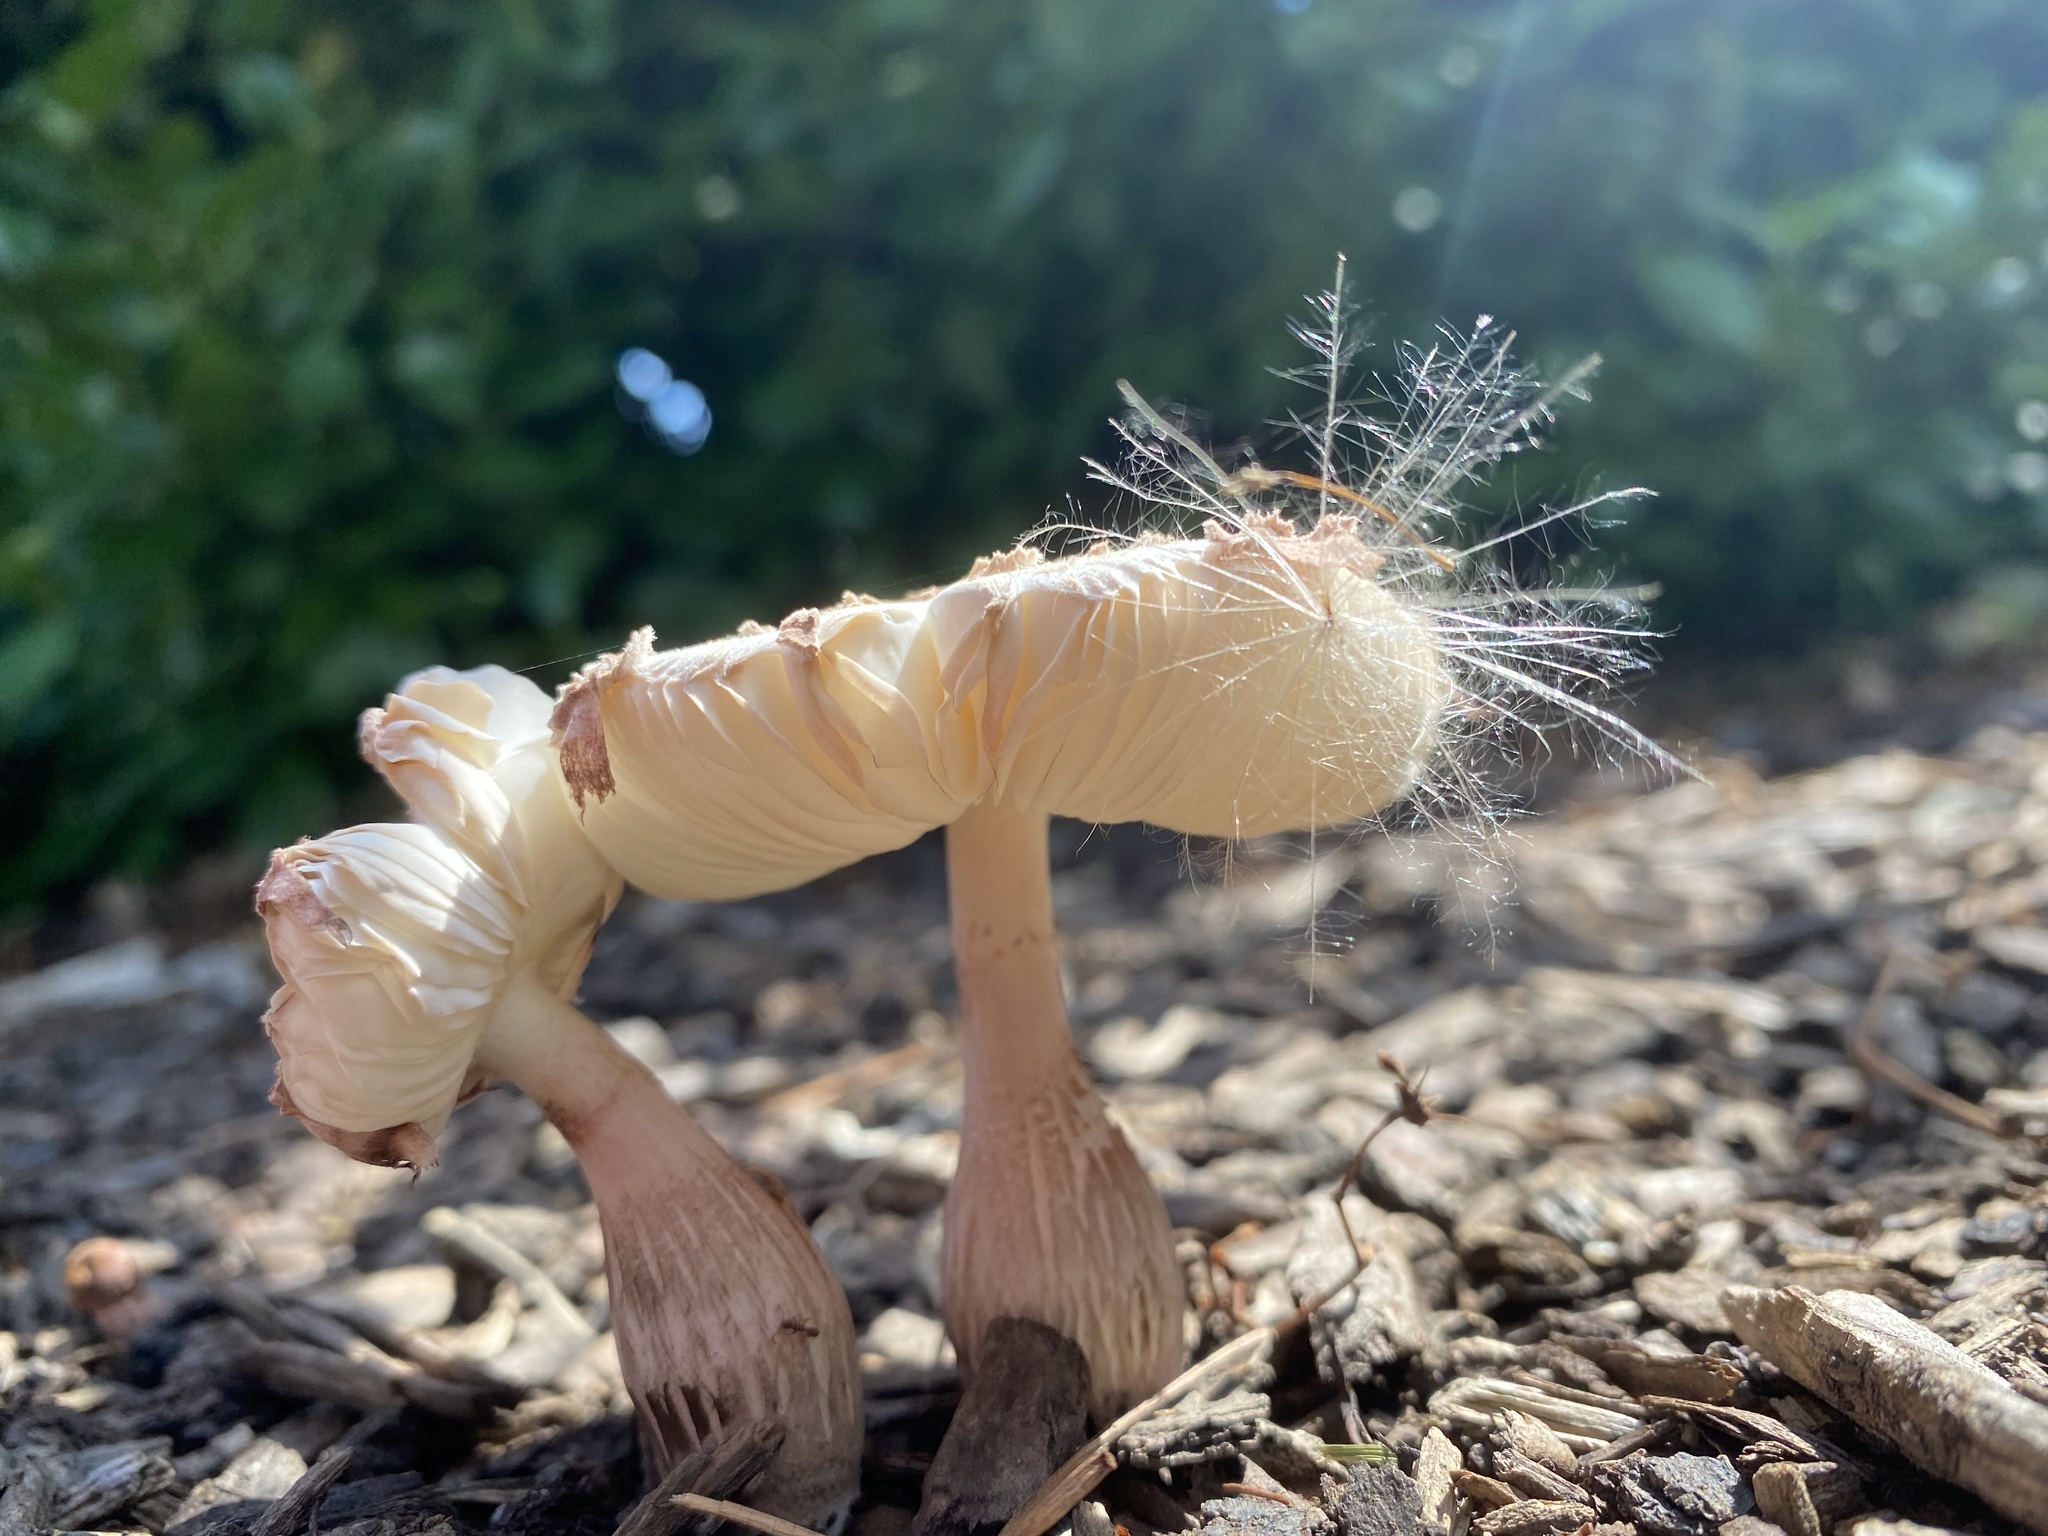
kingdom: Fungi
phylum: Basidiomycota
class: Agaricomycetes
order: Agaricales
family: Agaricaceae
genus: Leucoagaricus
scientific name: Leucoagaricus americanus
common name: Reddening lepiota
